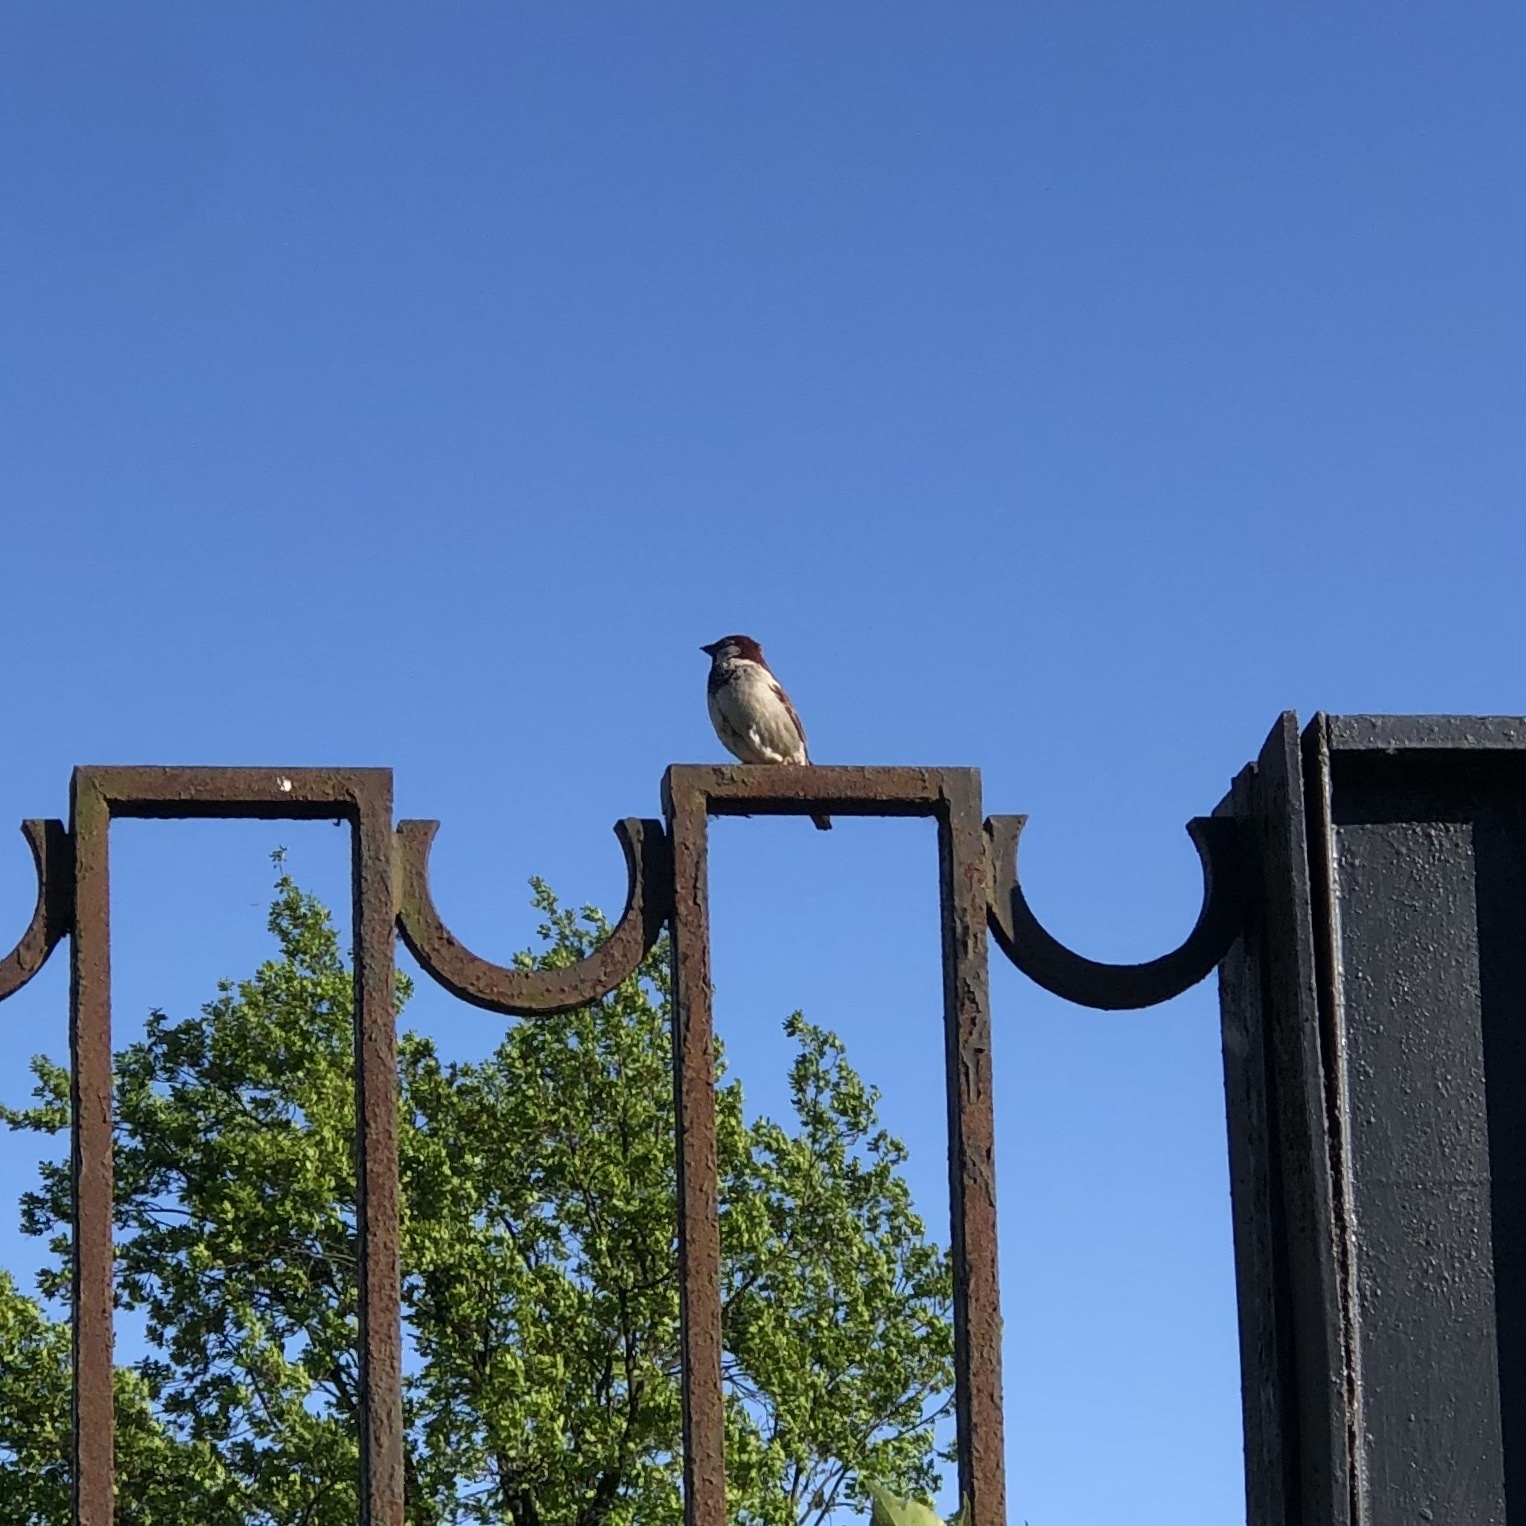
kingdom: Animalia
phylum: Chordata
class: Aves
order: Passeriformes
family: Passeridae
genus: Passer
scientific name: Passer domesticus
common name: House sparrow
